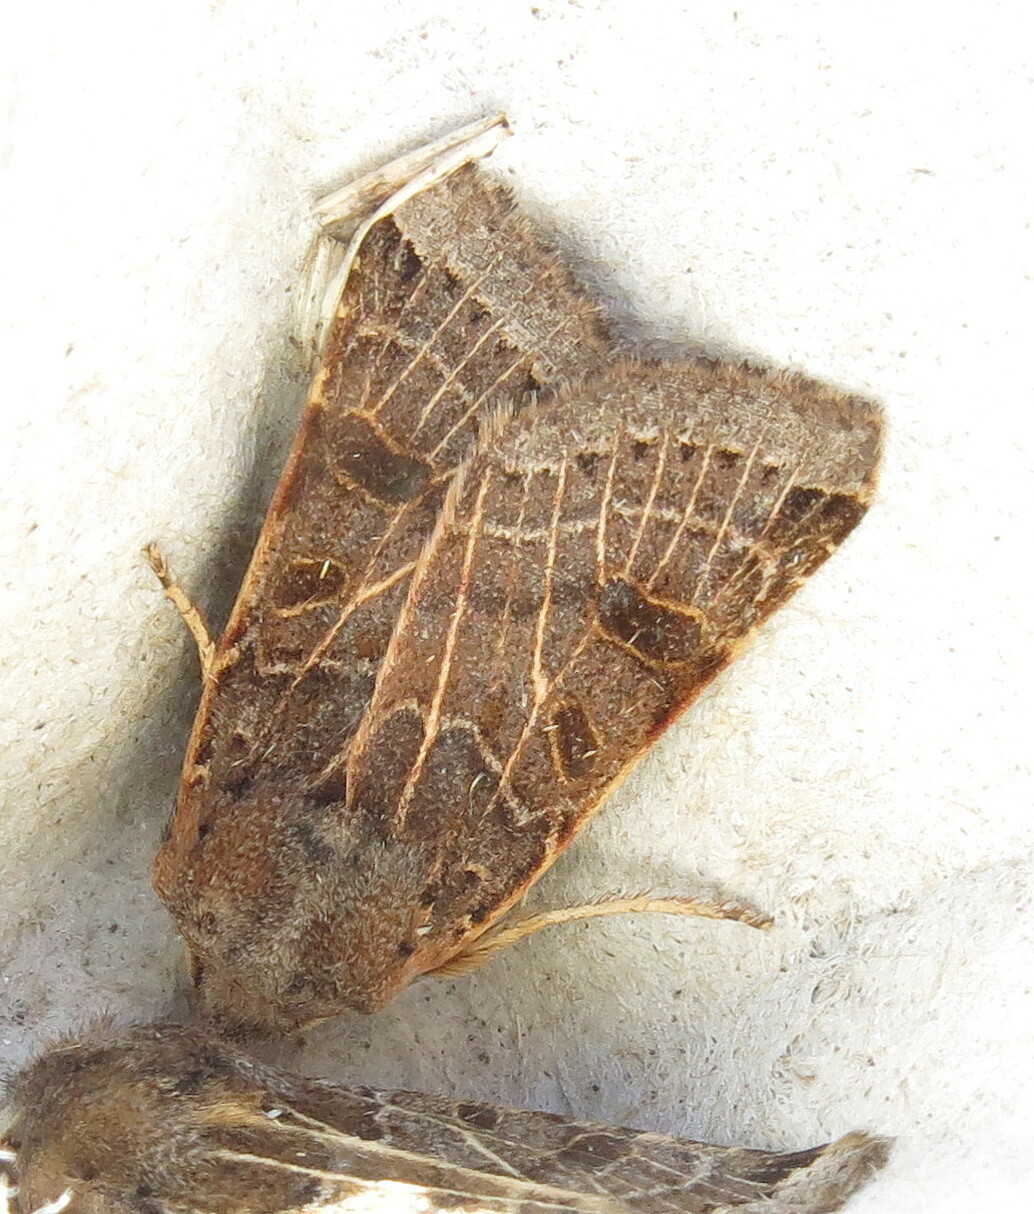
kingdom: Animalia
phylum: Arthropoda
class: Insecta
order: Lepidoptera
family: Noctuidae
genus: Agrochola
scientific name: Agrochola lunosa
